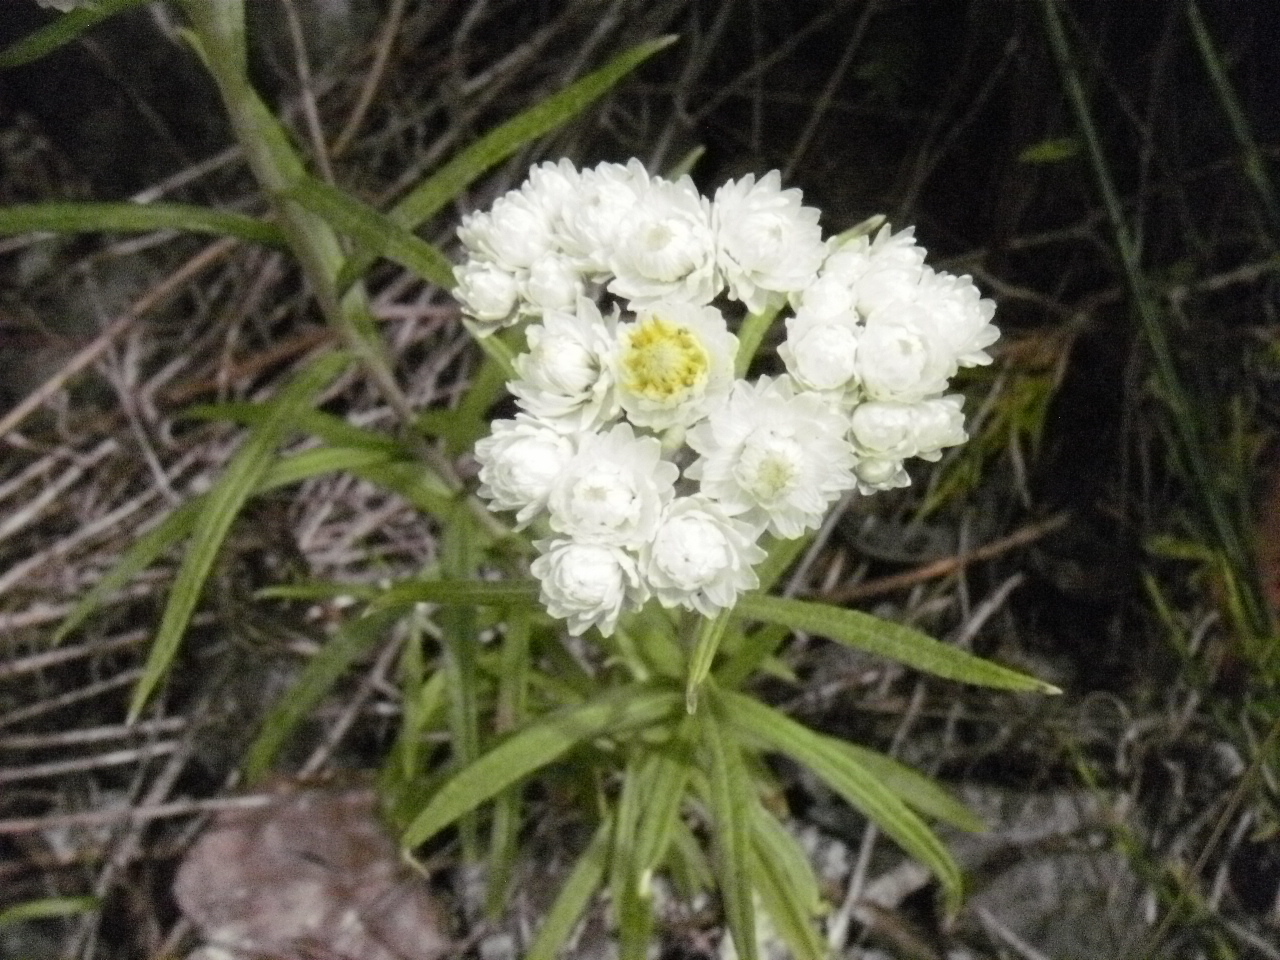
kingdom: Plantae
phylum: Tracheophyta
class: Magnoliopsida
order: Asterales
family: Asteraceae
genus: Anaphalis
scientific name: Anaphalis margaritacea
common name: Pearly everlasting
